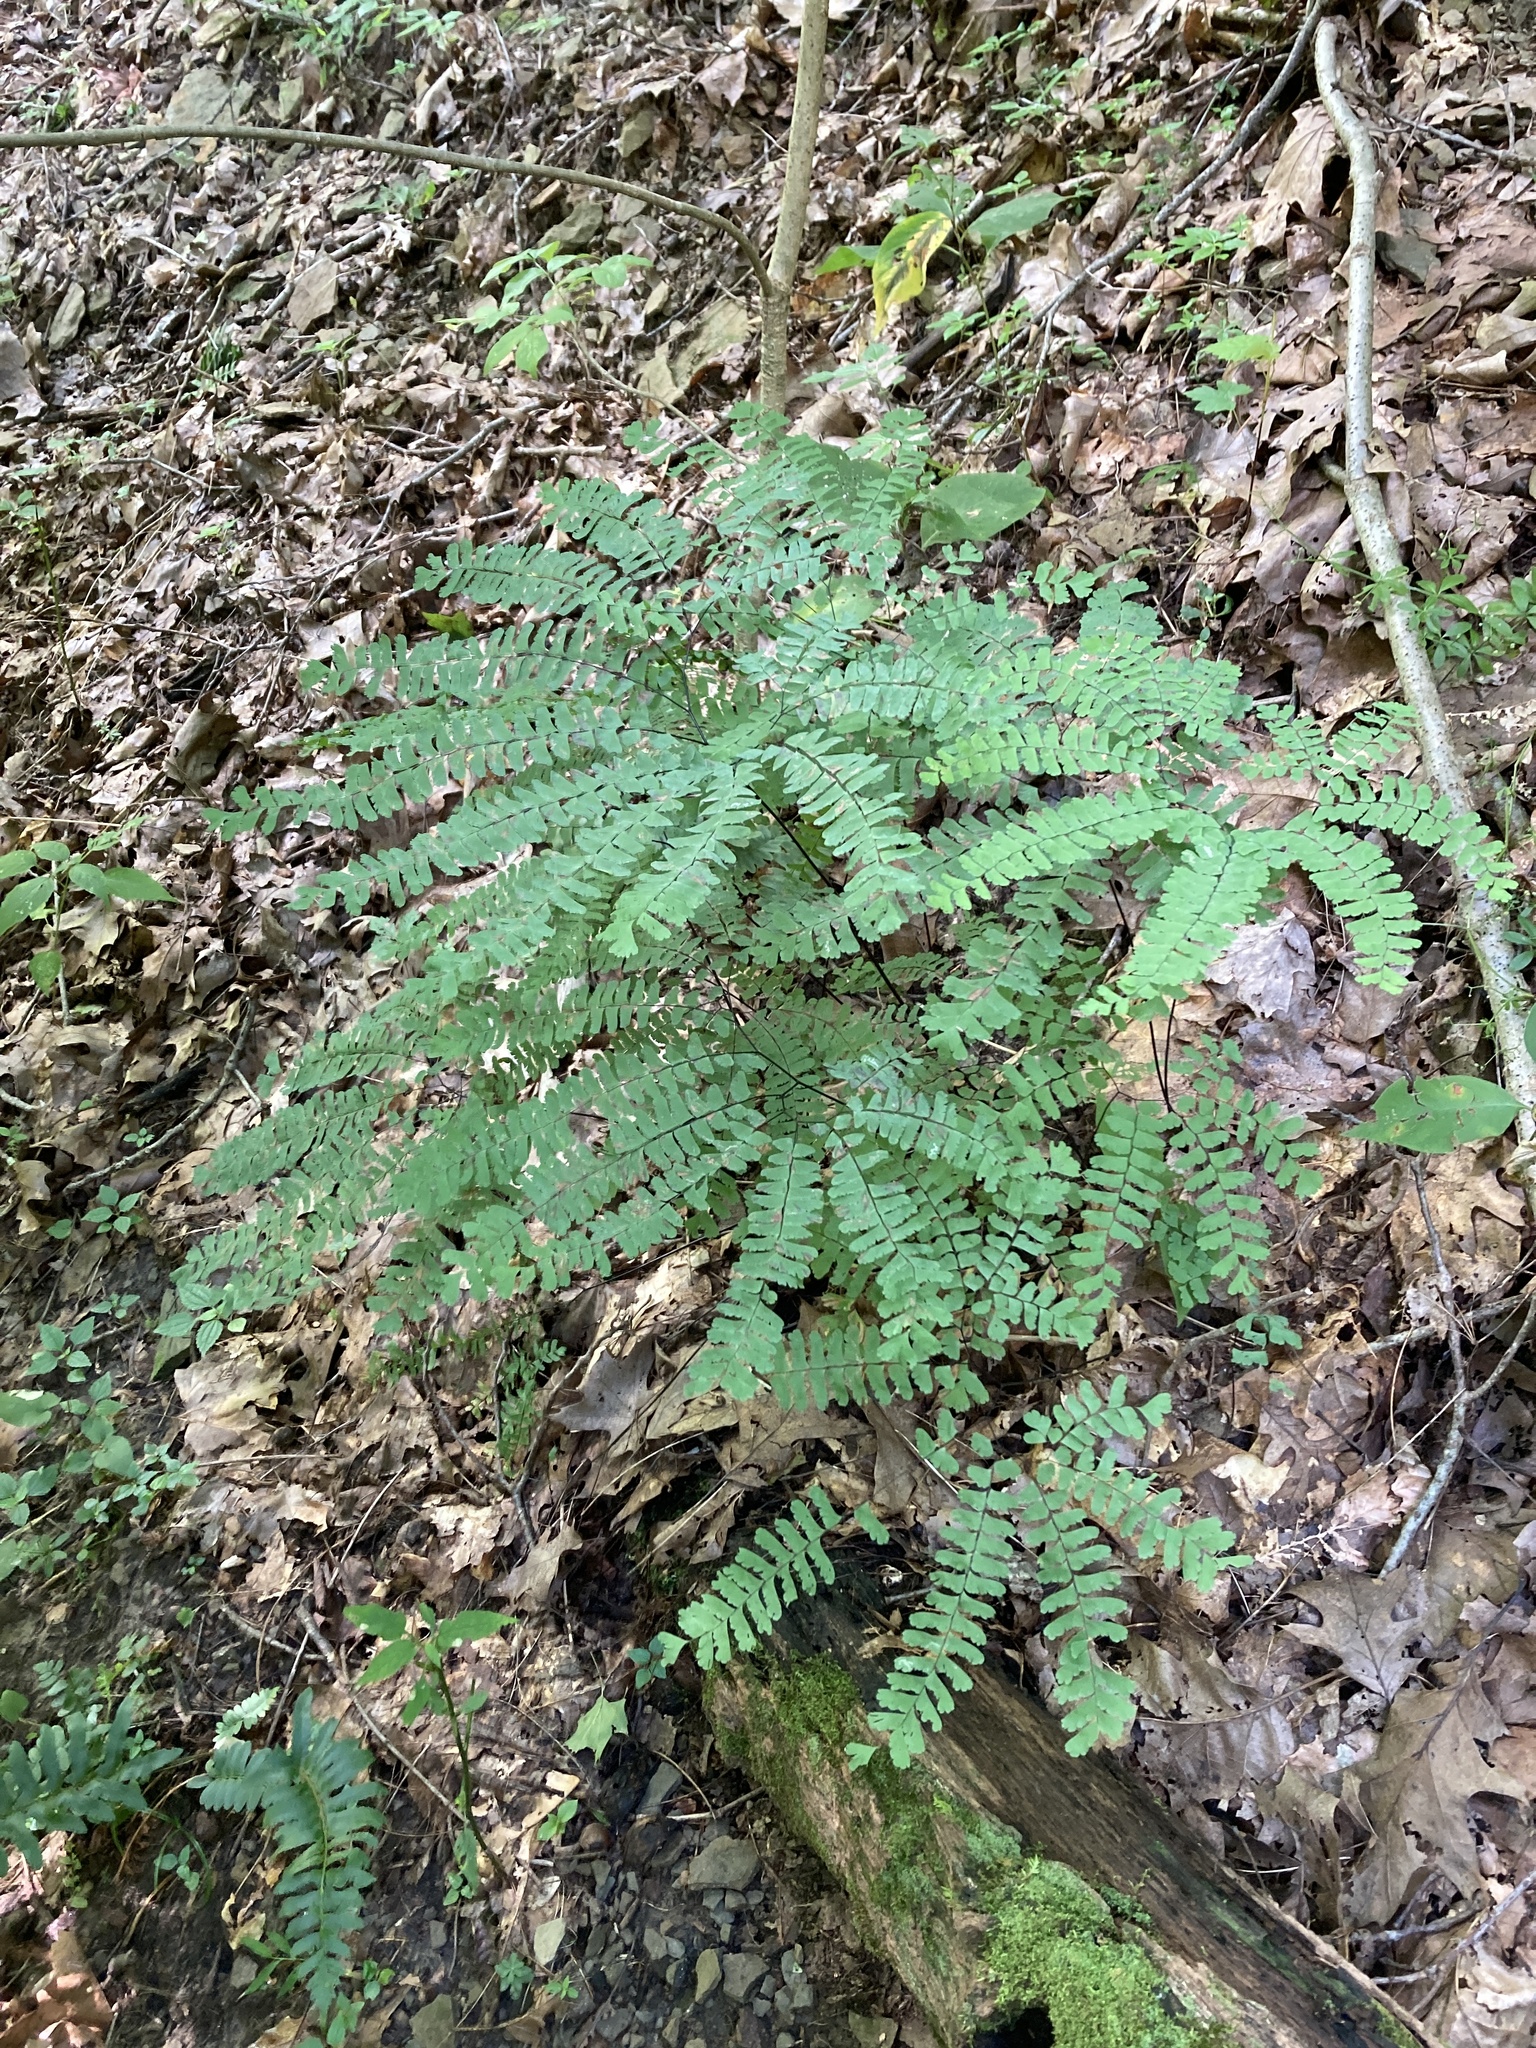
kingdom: Plantae
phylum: Tracheophyta
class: Polypodiopsida
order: Polypodiales
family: Pteridaceae
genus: Adiantum
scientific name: Adiantum pedatum
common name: Five-finger fern
